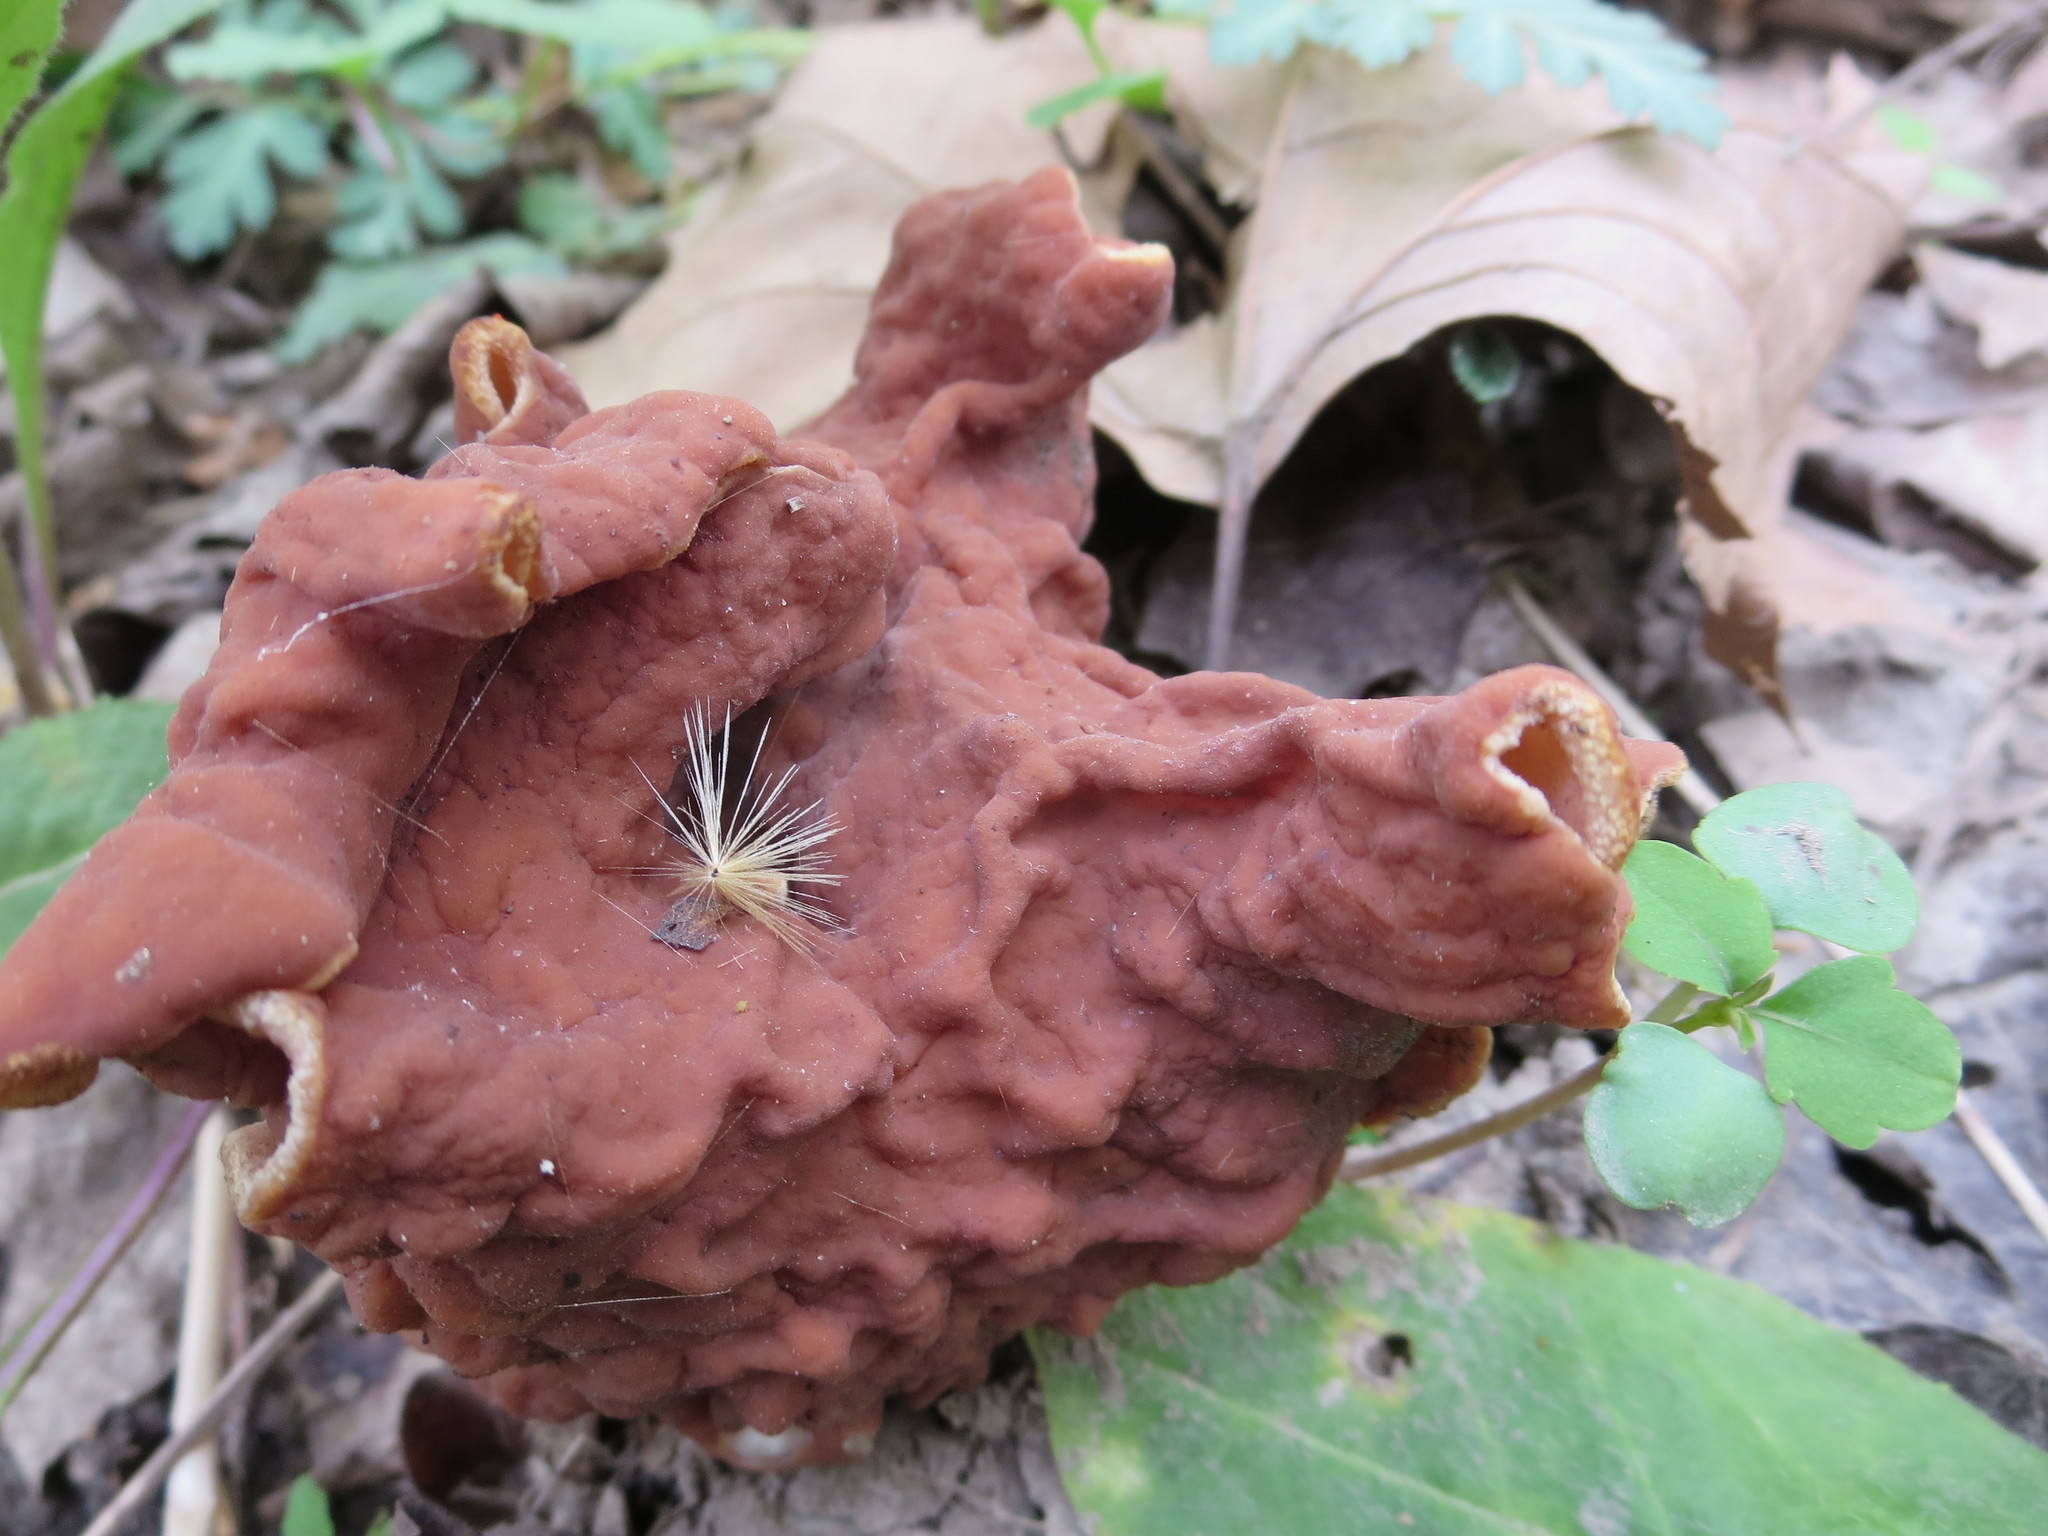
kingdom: Fungi
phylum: Ascomycota
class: Pezizomycetes
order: Pezizales
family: Discinaceae
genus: Discina
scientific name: Discina brunnea
